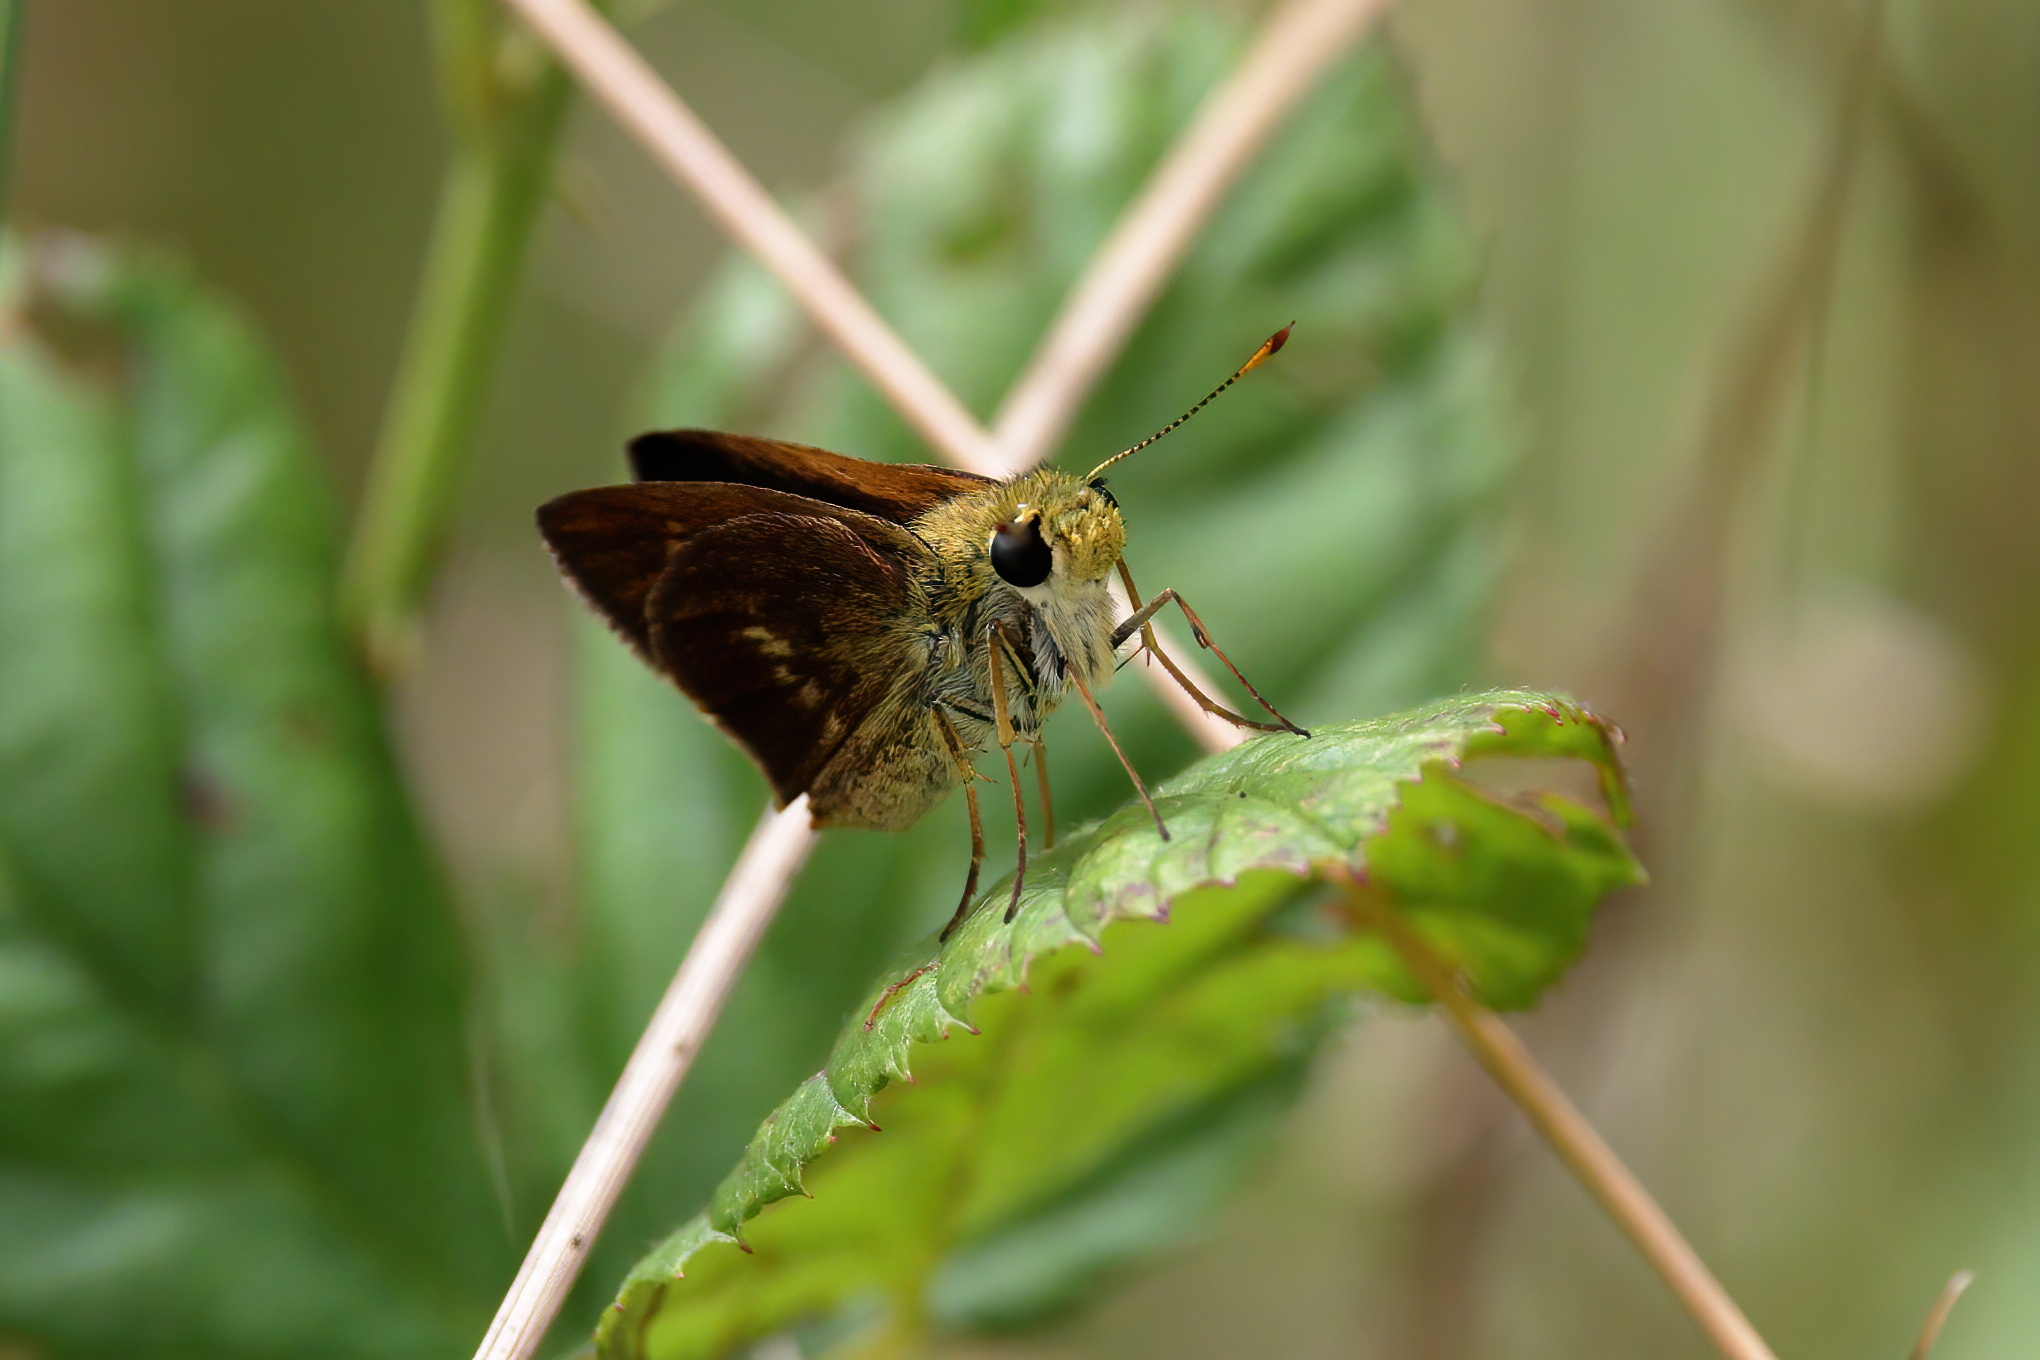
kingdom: Animalia
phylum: Arthropoda
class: Insecta
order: Lepidoptera
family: Hesperiidae
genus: Polites
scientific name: Polites egeremet
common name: Northern broken-dash
